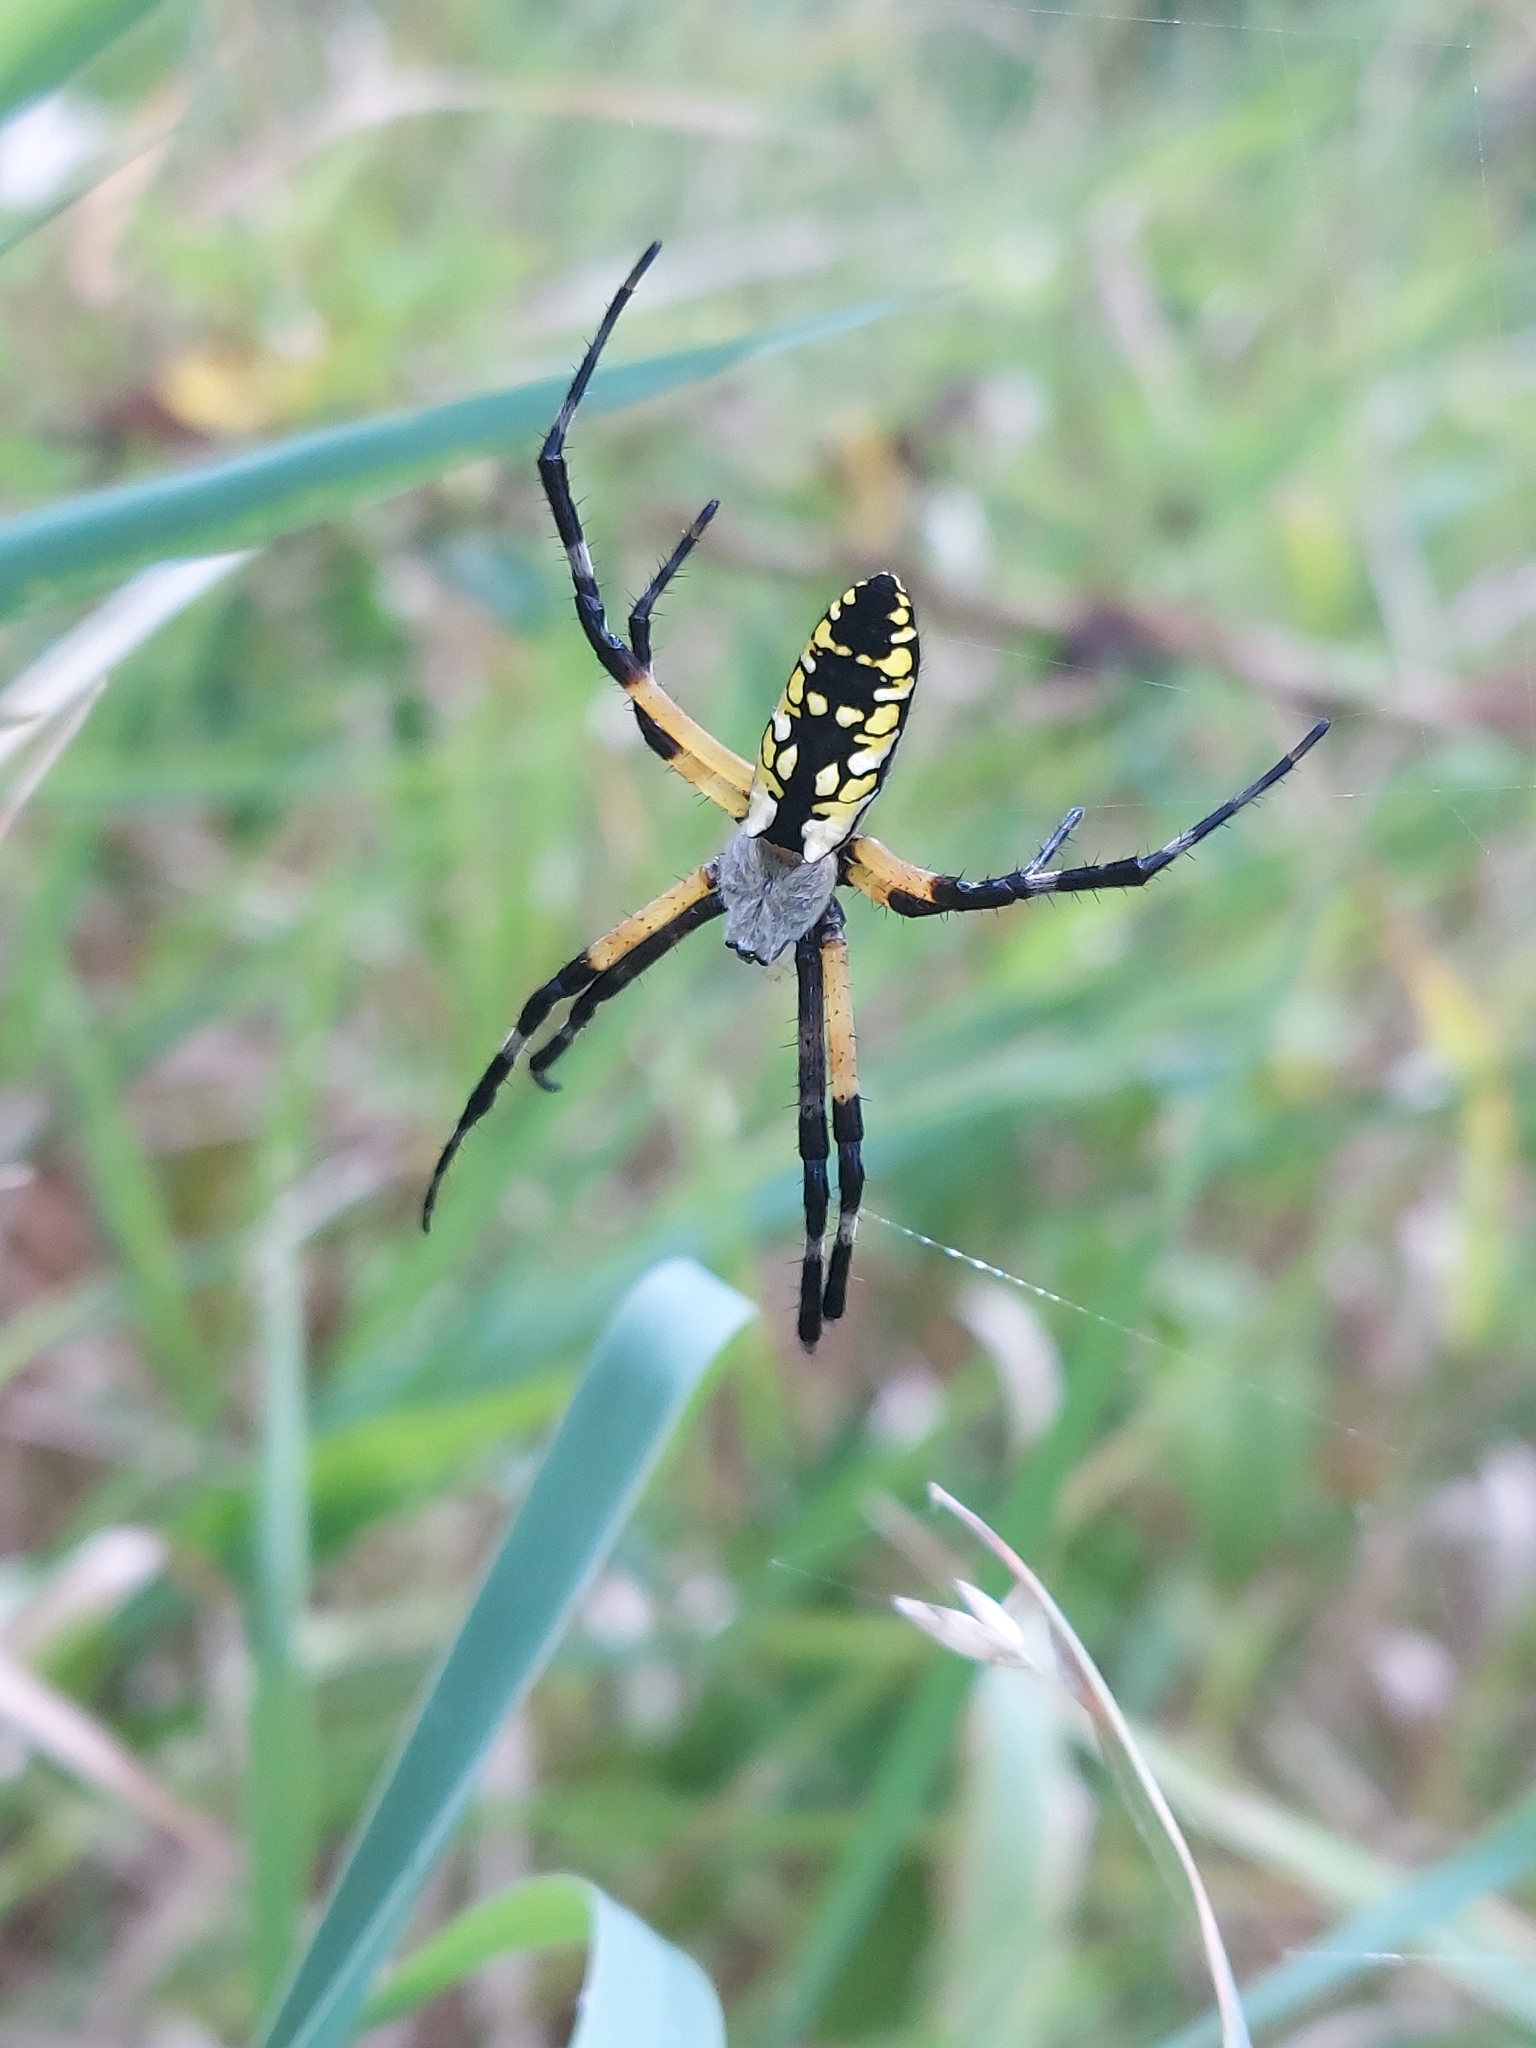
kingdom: Animalia
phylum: Arthropoda
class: Arachnida
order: Araneae
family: Araneidae
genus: Argiope
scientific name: Argiope aurantia
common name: Orb weavers
